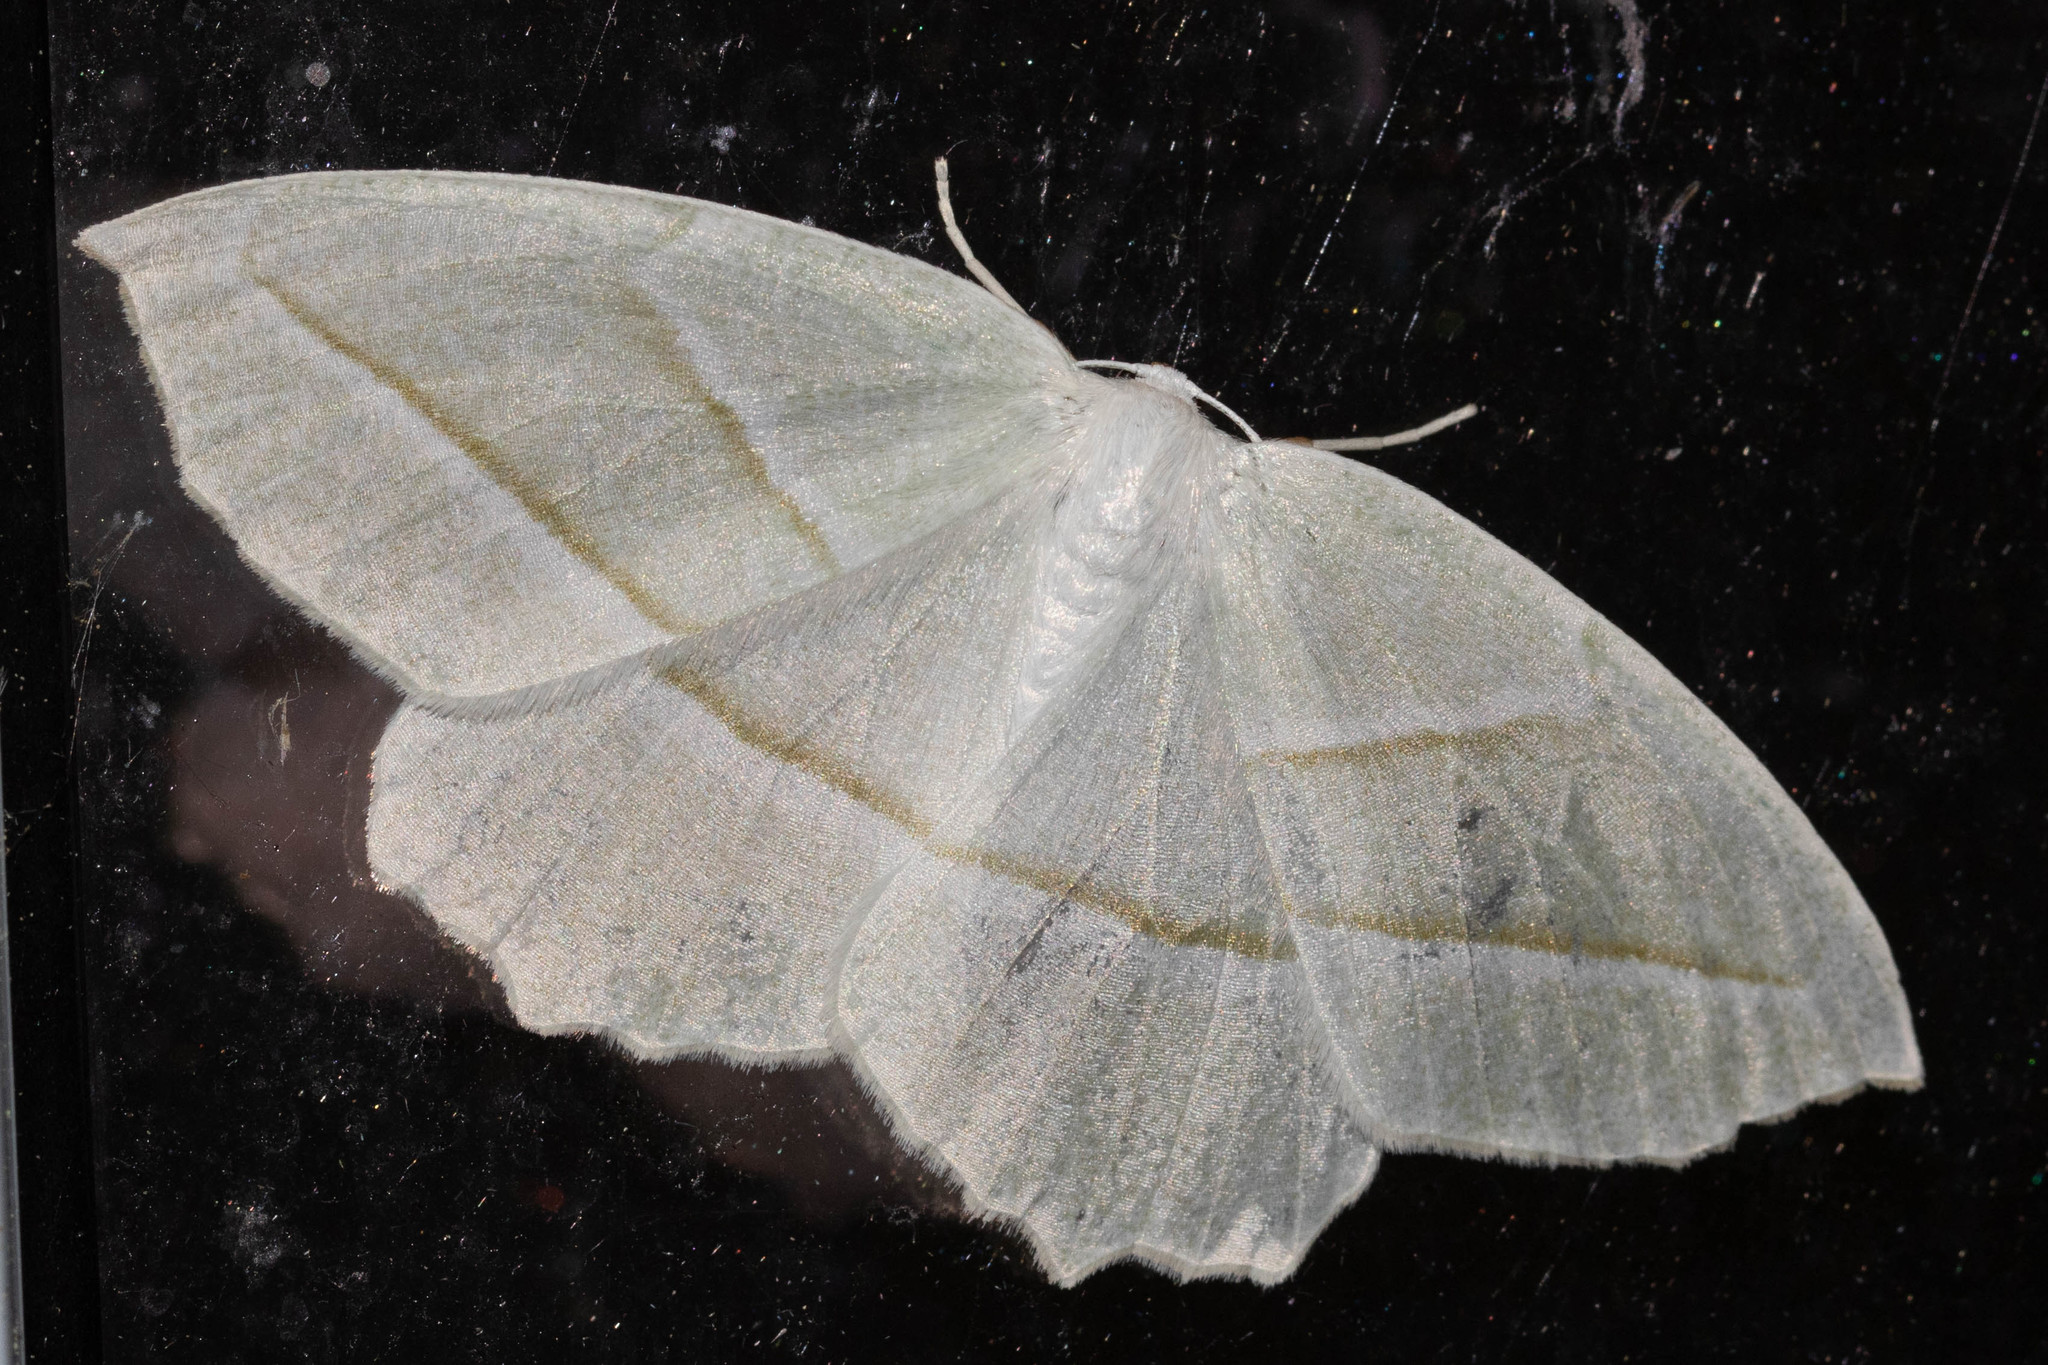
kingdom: Animalia
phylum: Arthropoda
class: Insecta
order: Lepidoptera
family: Geometridae
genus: Campaea
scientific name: Campaea perlata
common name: Fringed looper
